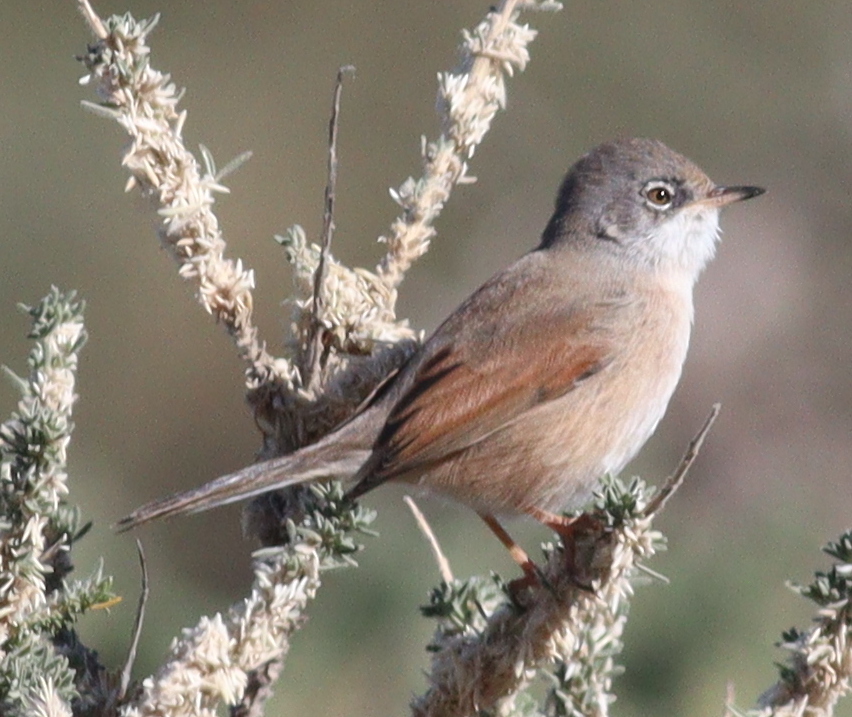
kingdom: Animalia
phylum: Chordata
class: Aves
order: Passeriformes
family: Sylviidae
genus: Sylvia
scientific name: Sylvia conspicillata
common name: Spectacled warbler
